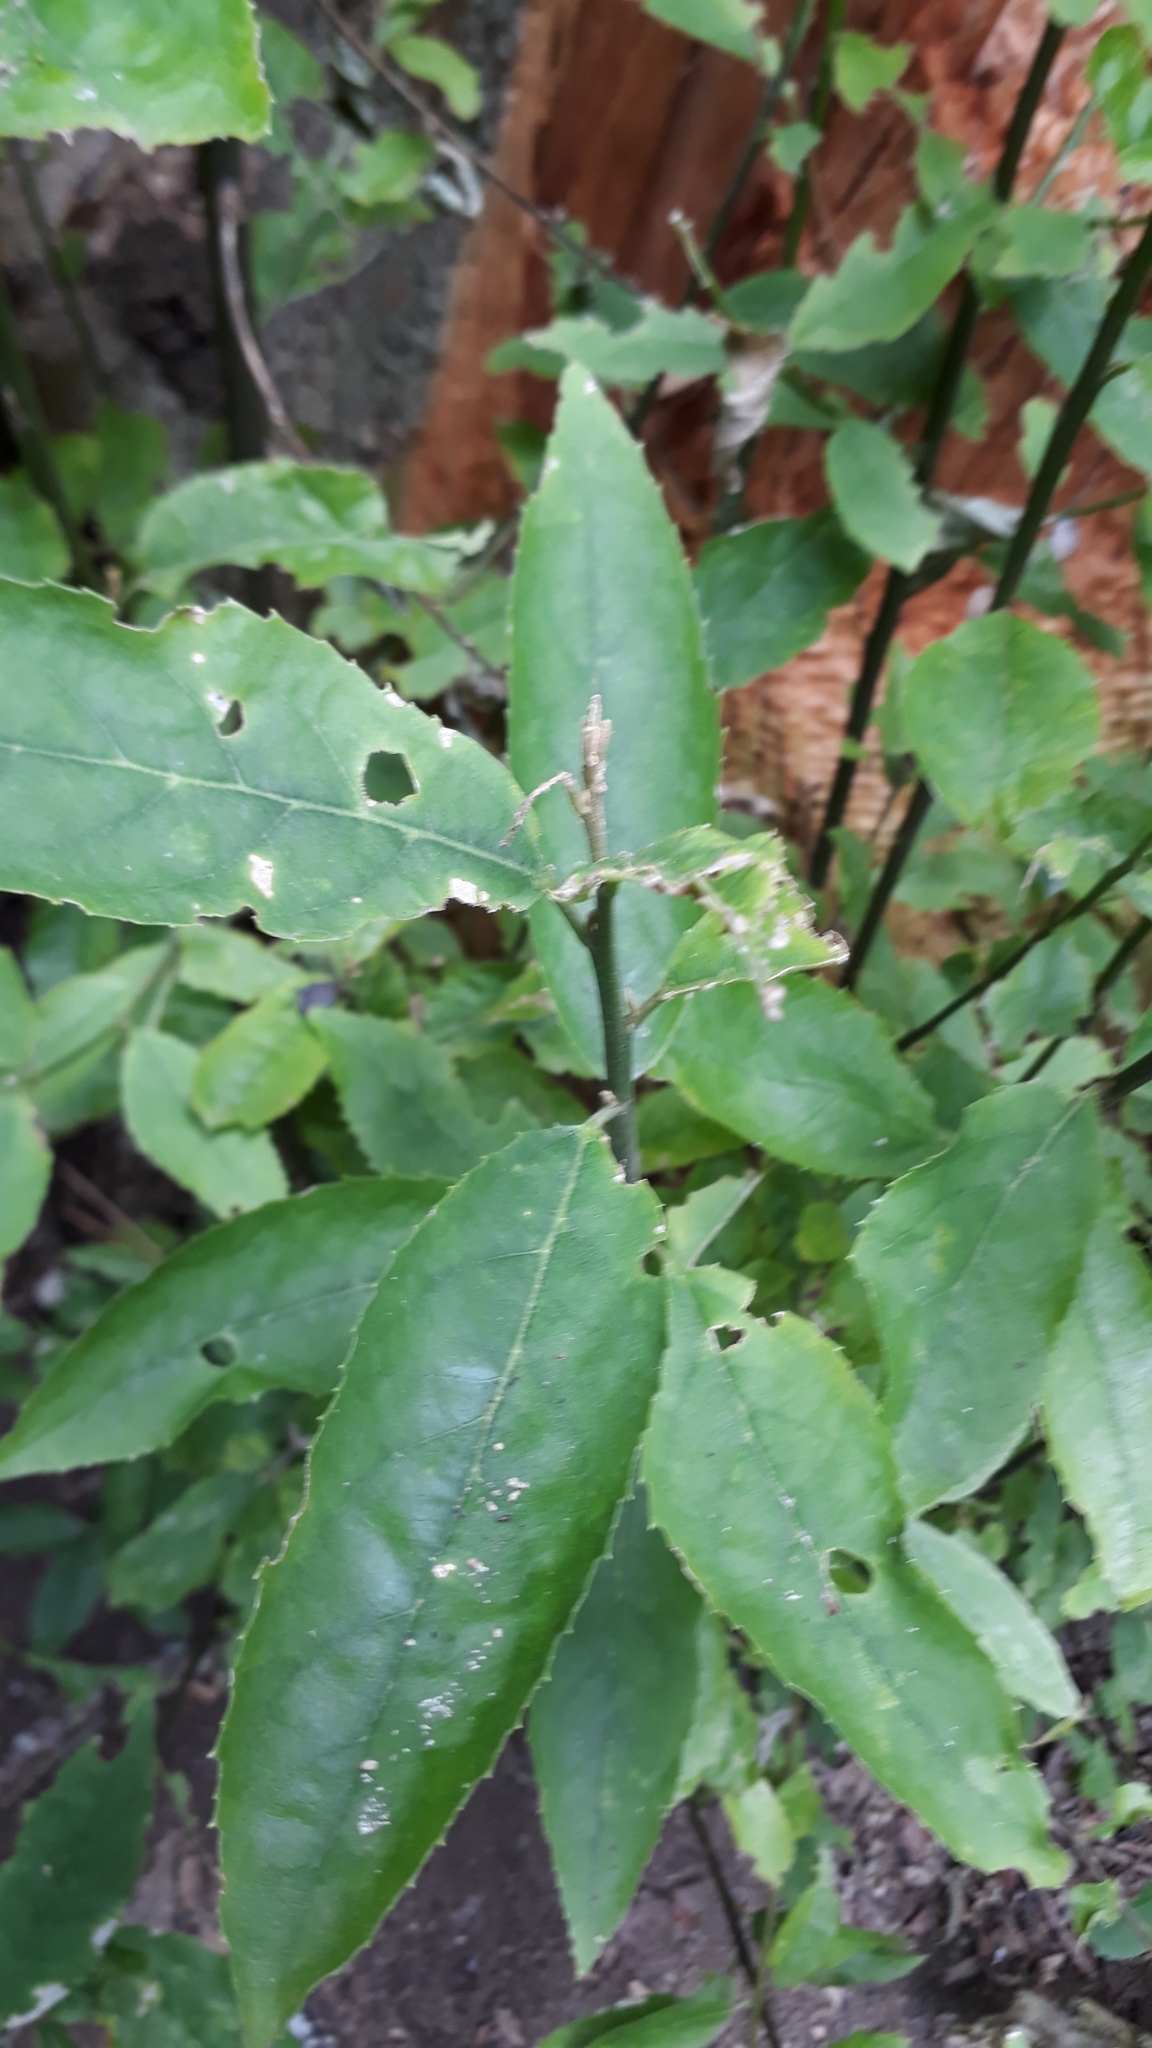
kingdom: Plantae
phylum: Tracheophyta
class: Magnoliopsida
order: Malpighiales
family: Achariaceae
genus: Kiggelaria
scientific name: Kiggelaria africana
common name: Wild peach
